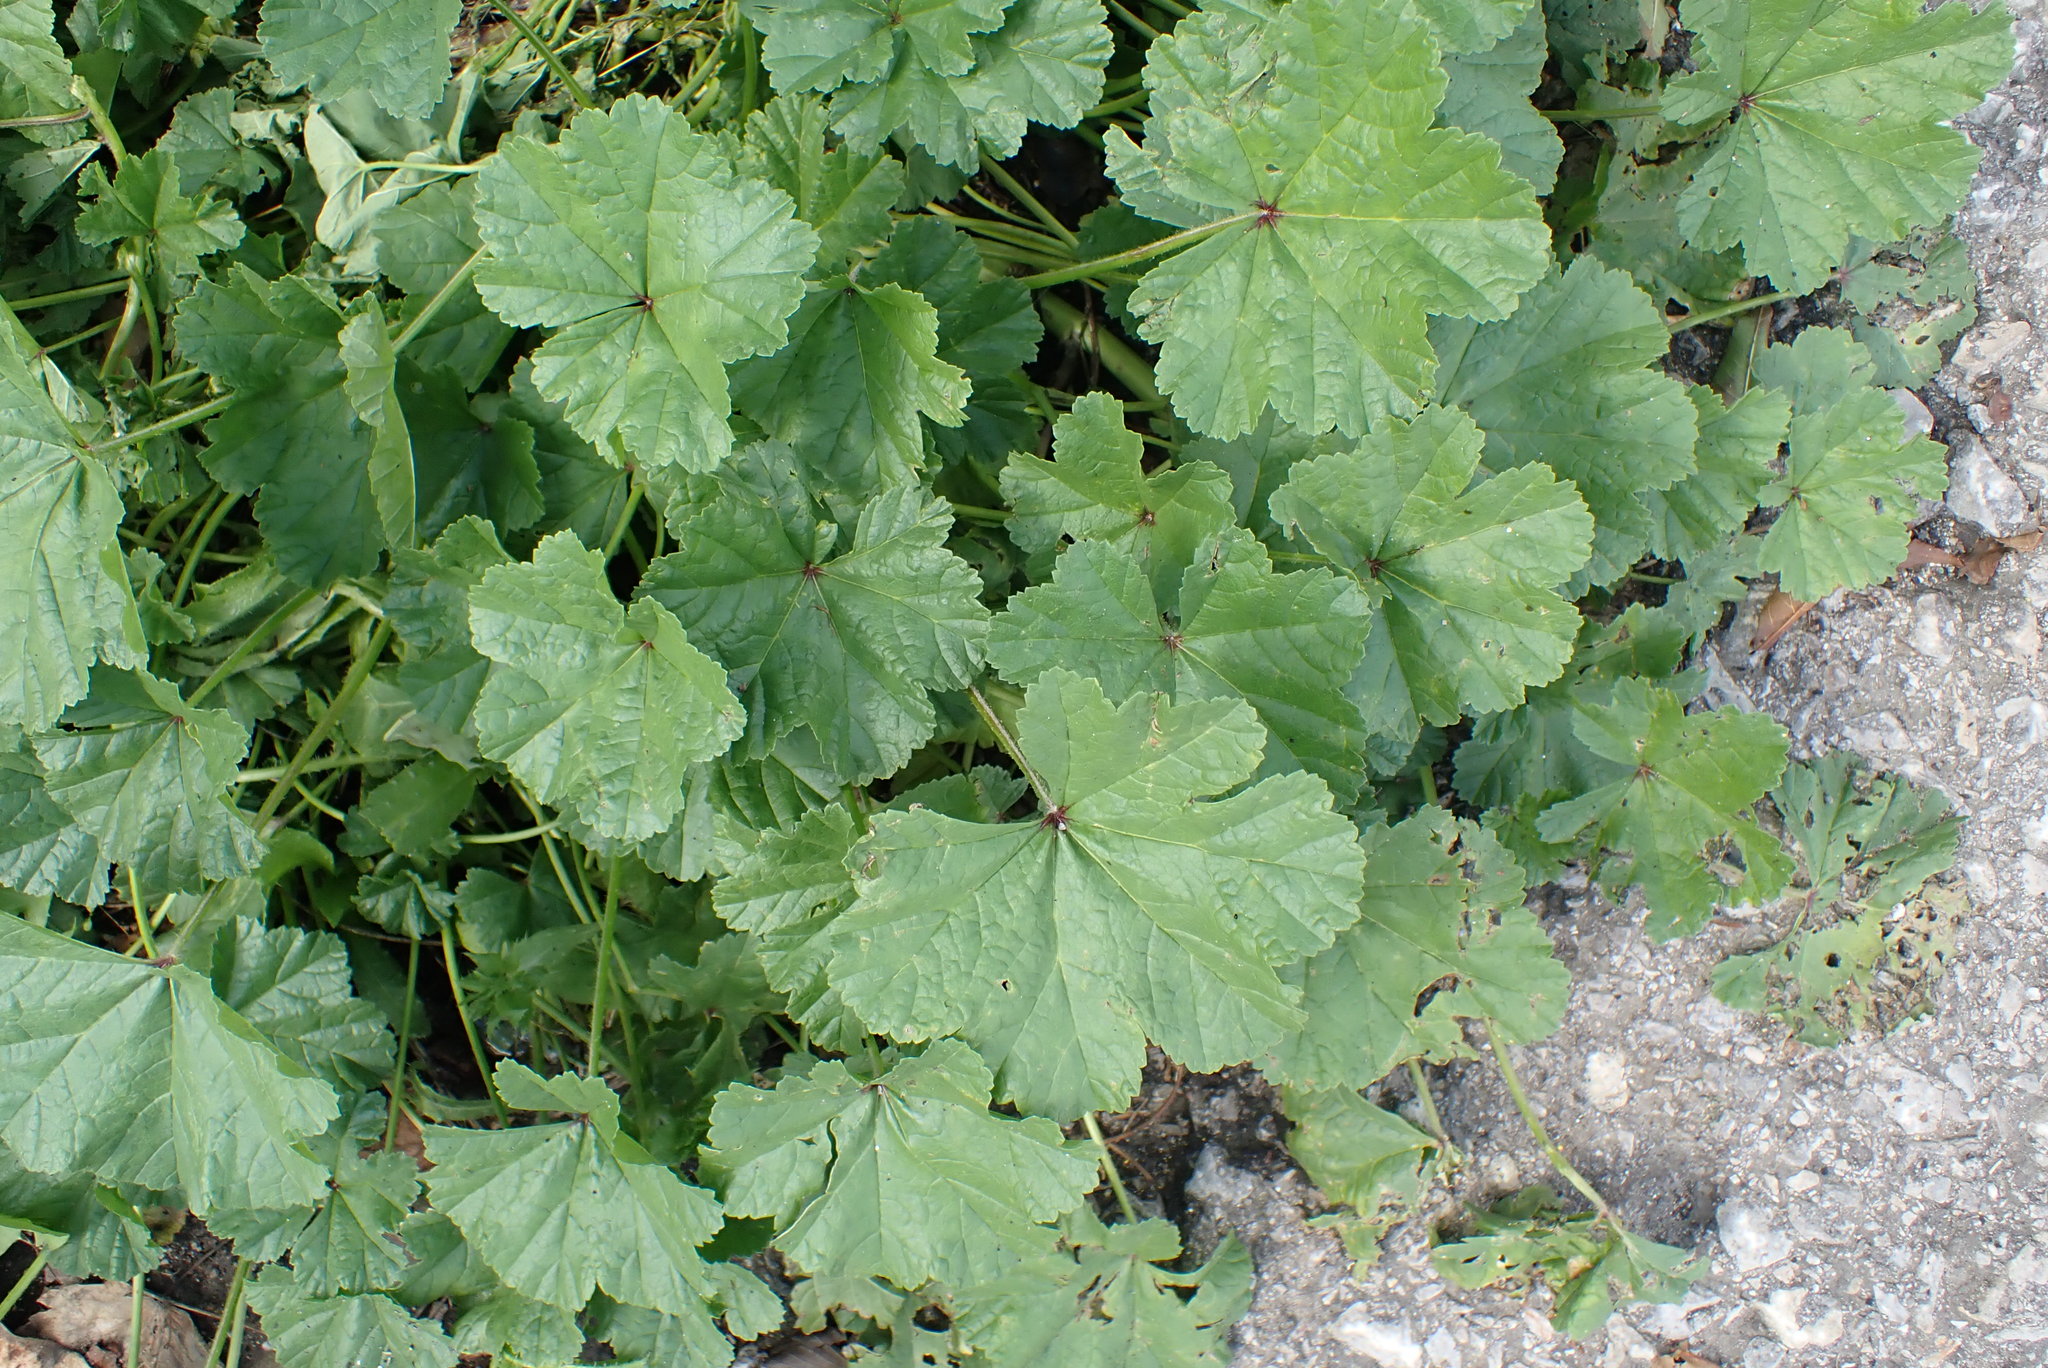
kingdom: Plantae
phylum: Tracheophyta
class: Magnoliopsida
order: Malvales
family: Malvaceae
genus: Malva
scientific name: Malva sylvestris
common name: Common mallow
